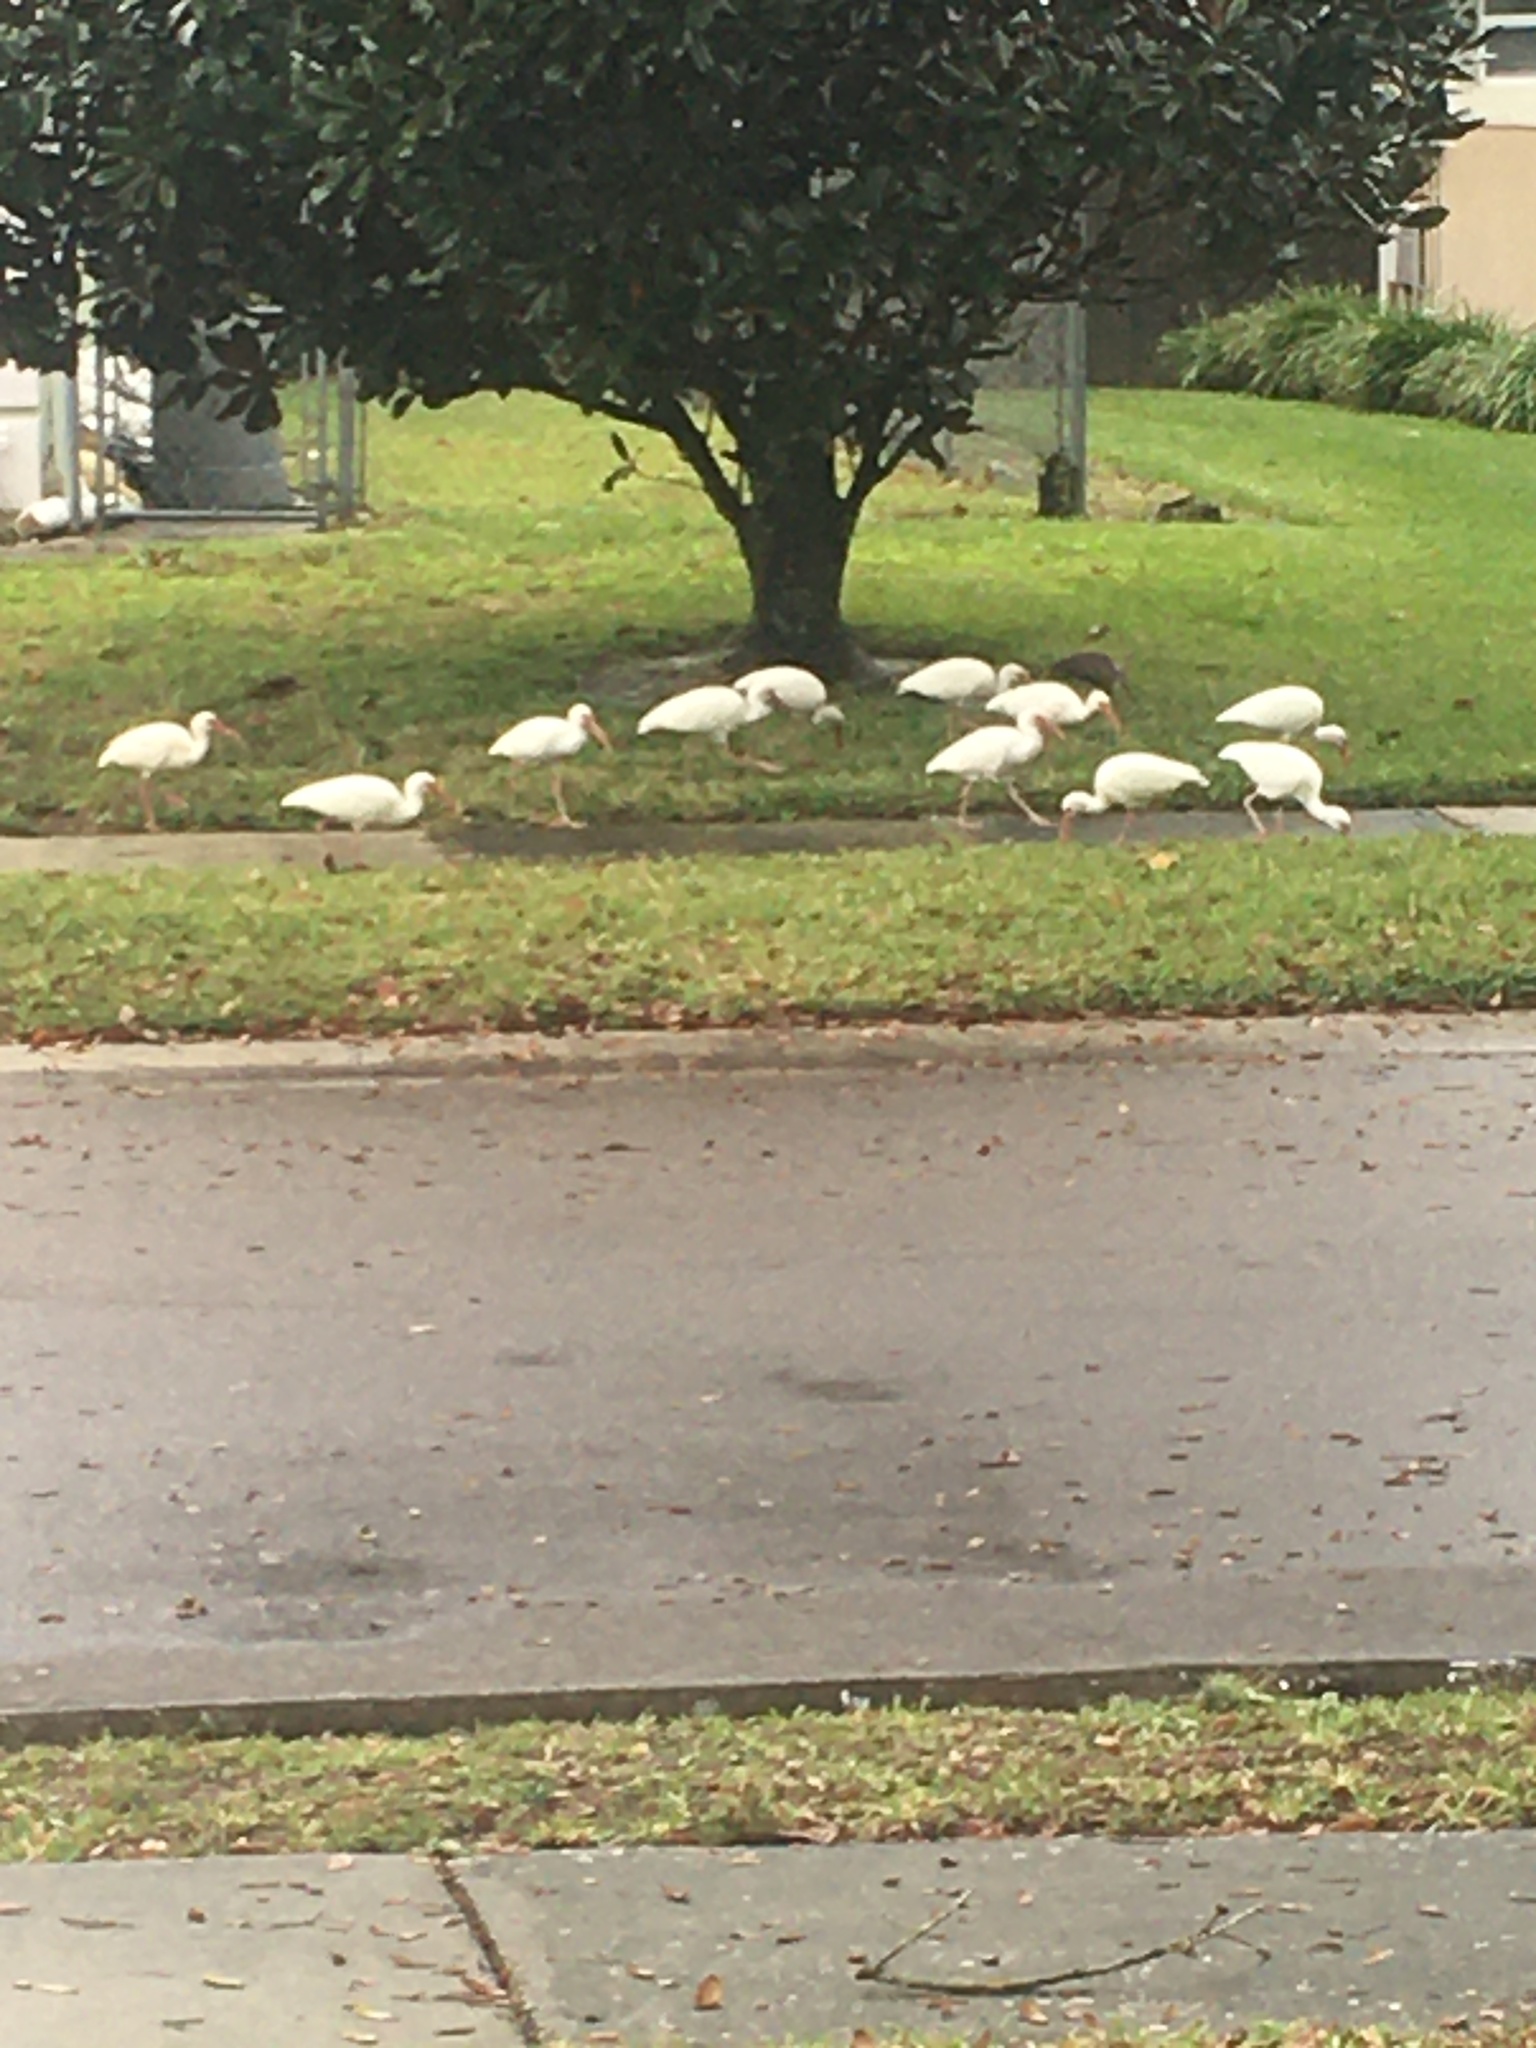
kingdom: Animalia
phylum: Chordata
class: Aves
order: Pelecaniformes
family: Threskiornithidae
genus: Eudocimus
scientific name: Eudocimus albus
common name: White ibis
